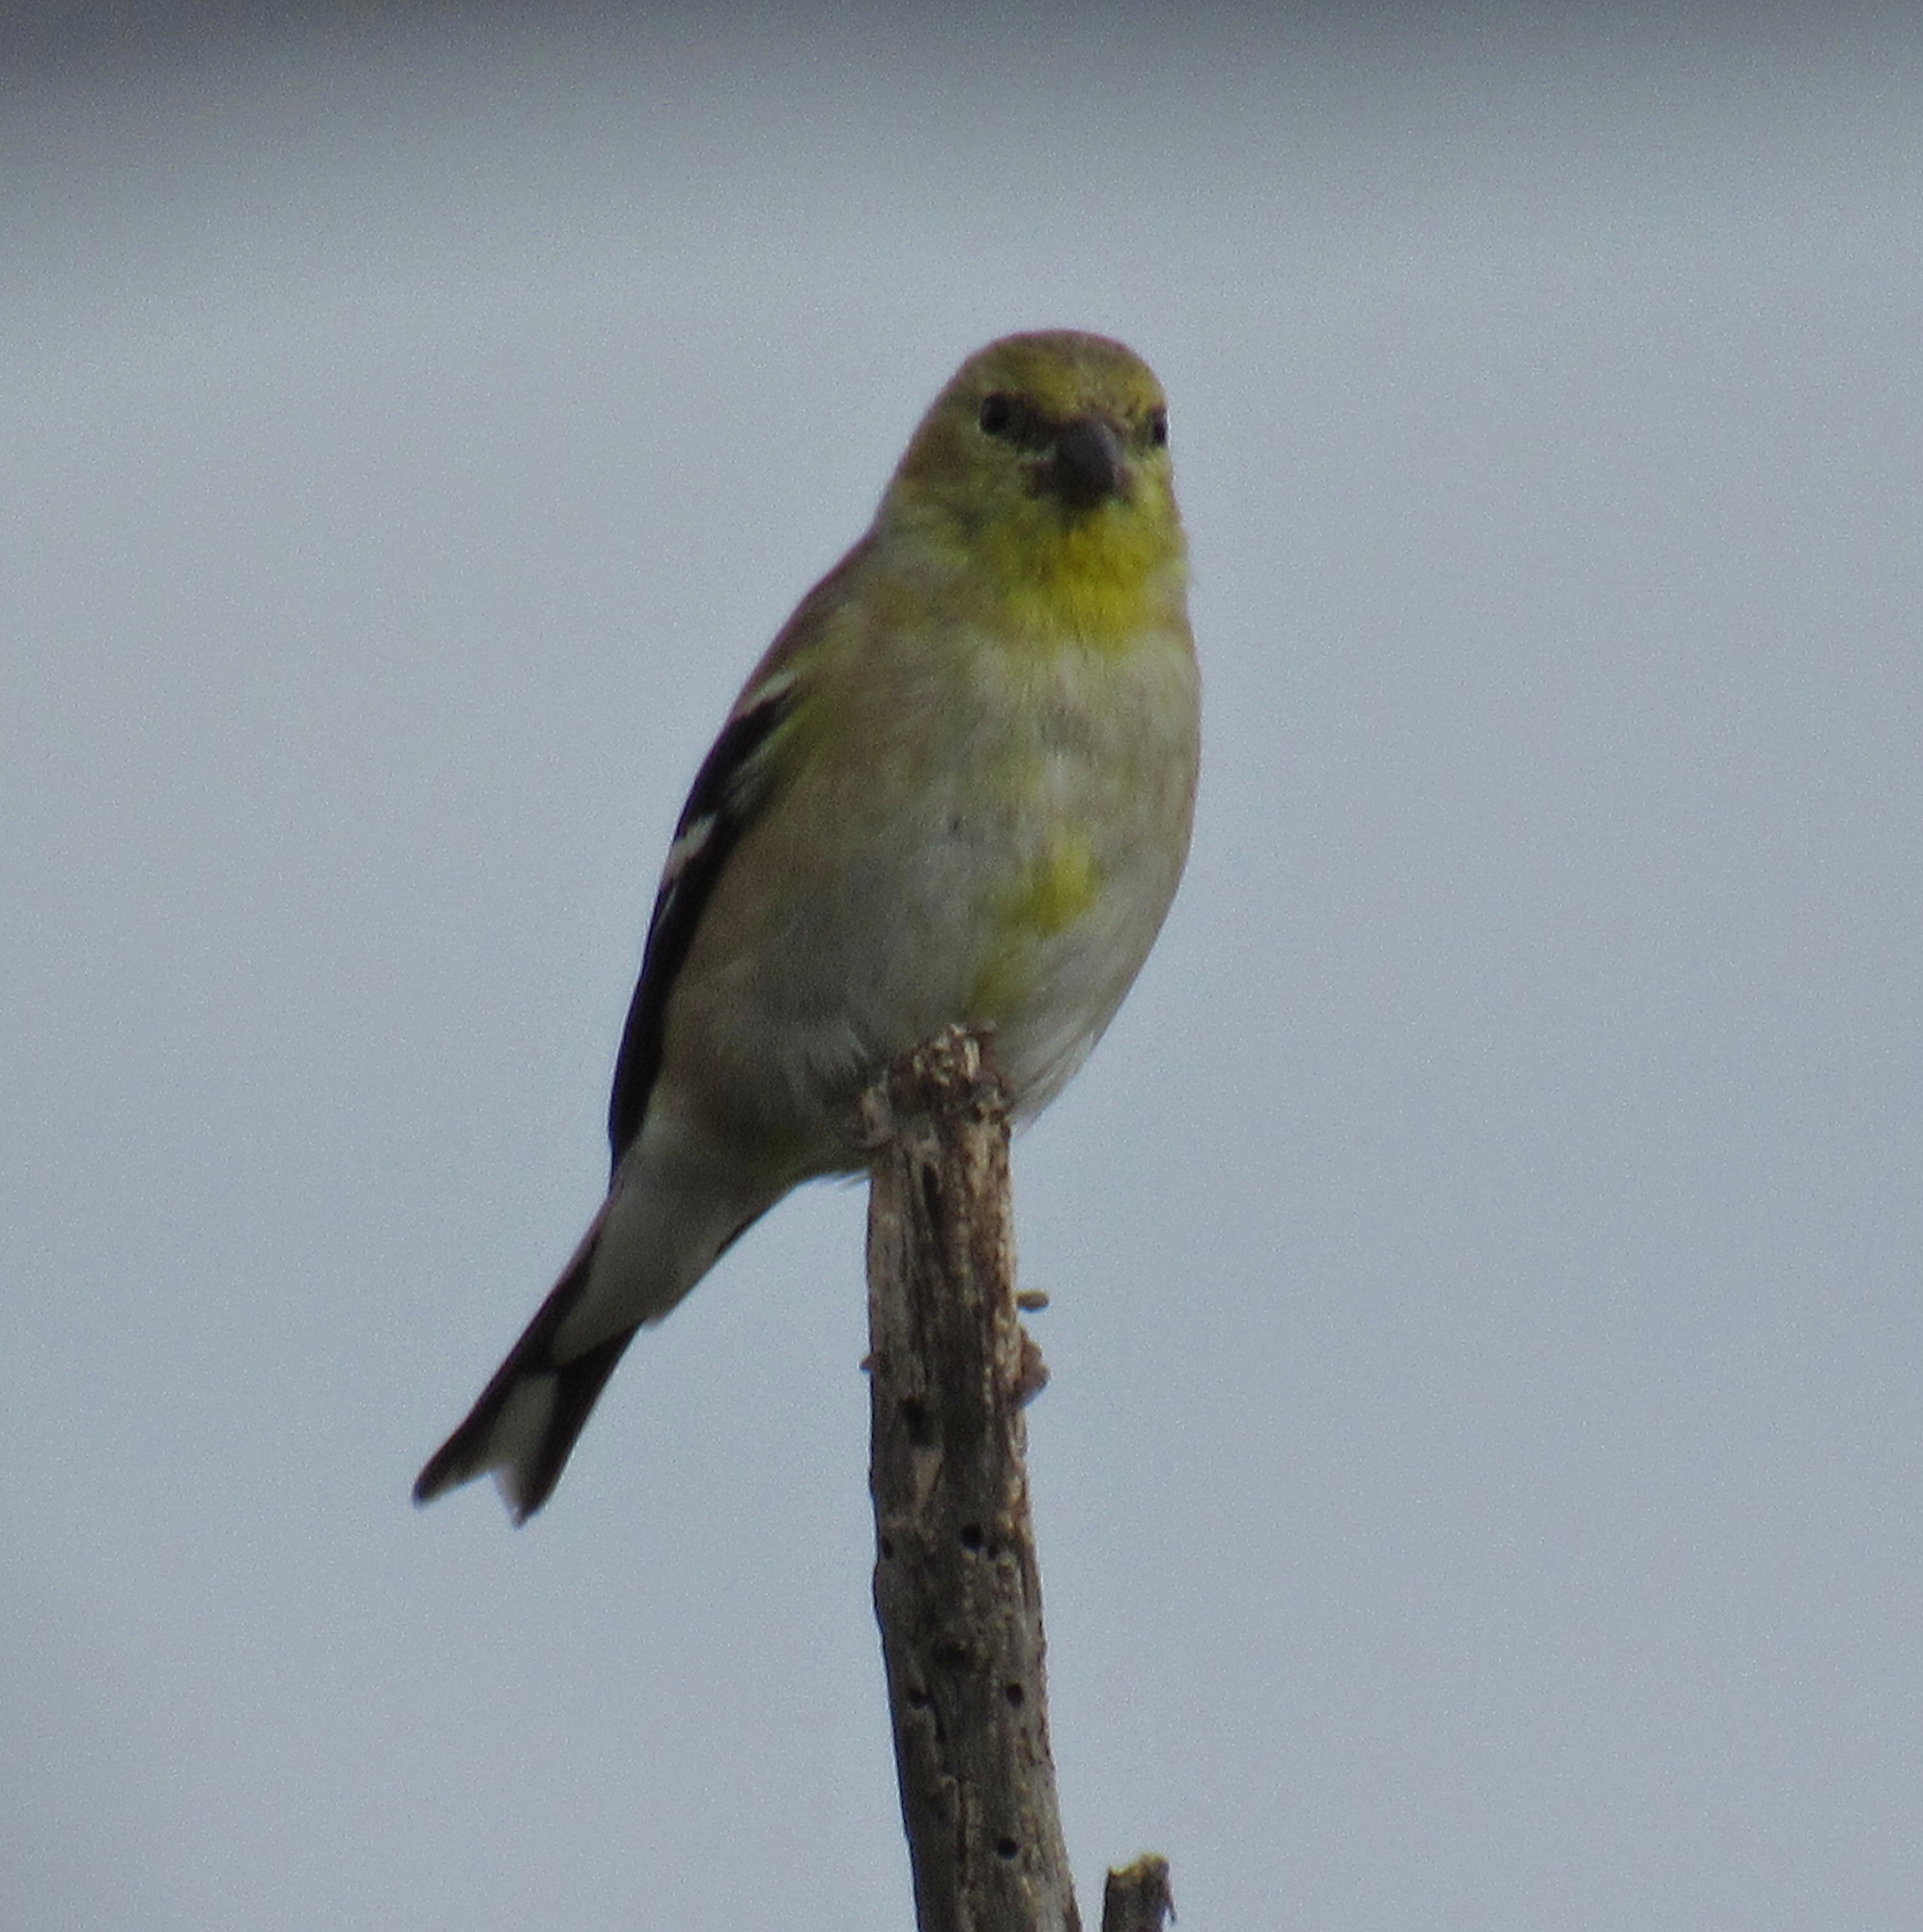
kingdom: Animalia
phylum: Chordata
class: Aves
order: Passeriformes
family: Fringillidae
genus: Spinus
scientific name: Spinus tristis
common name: American goldfinch
